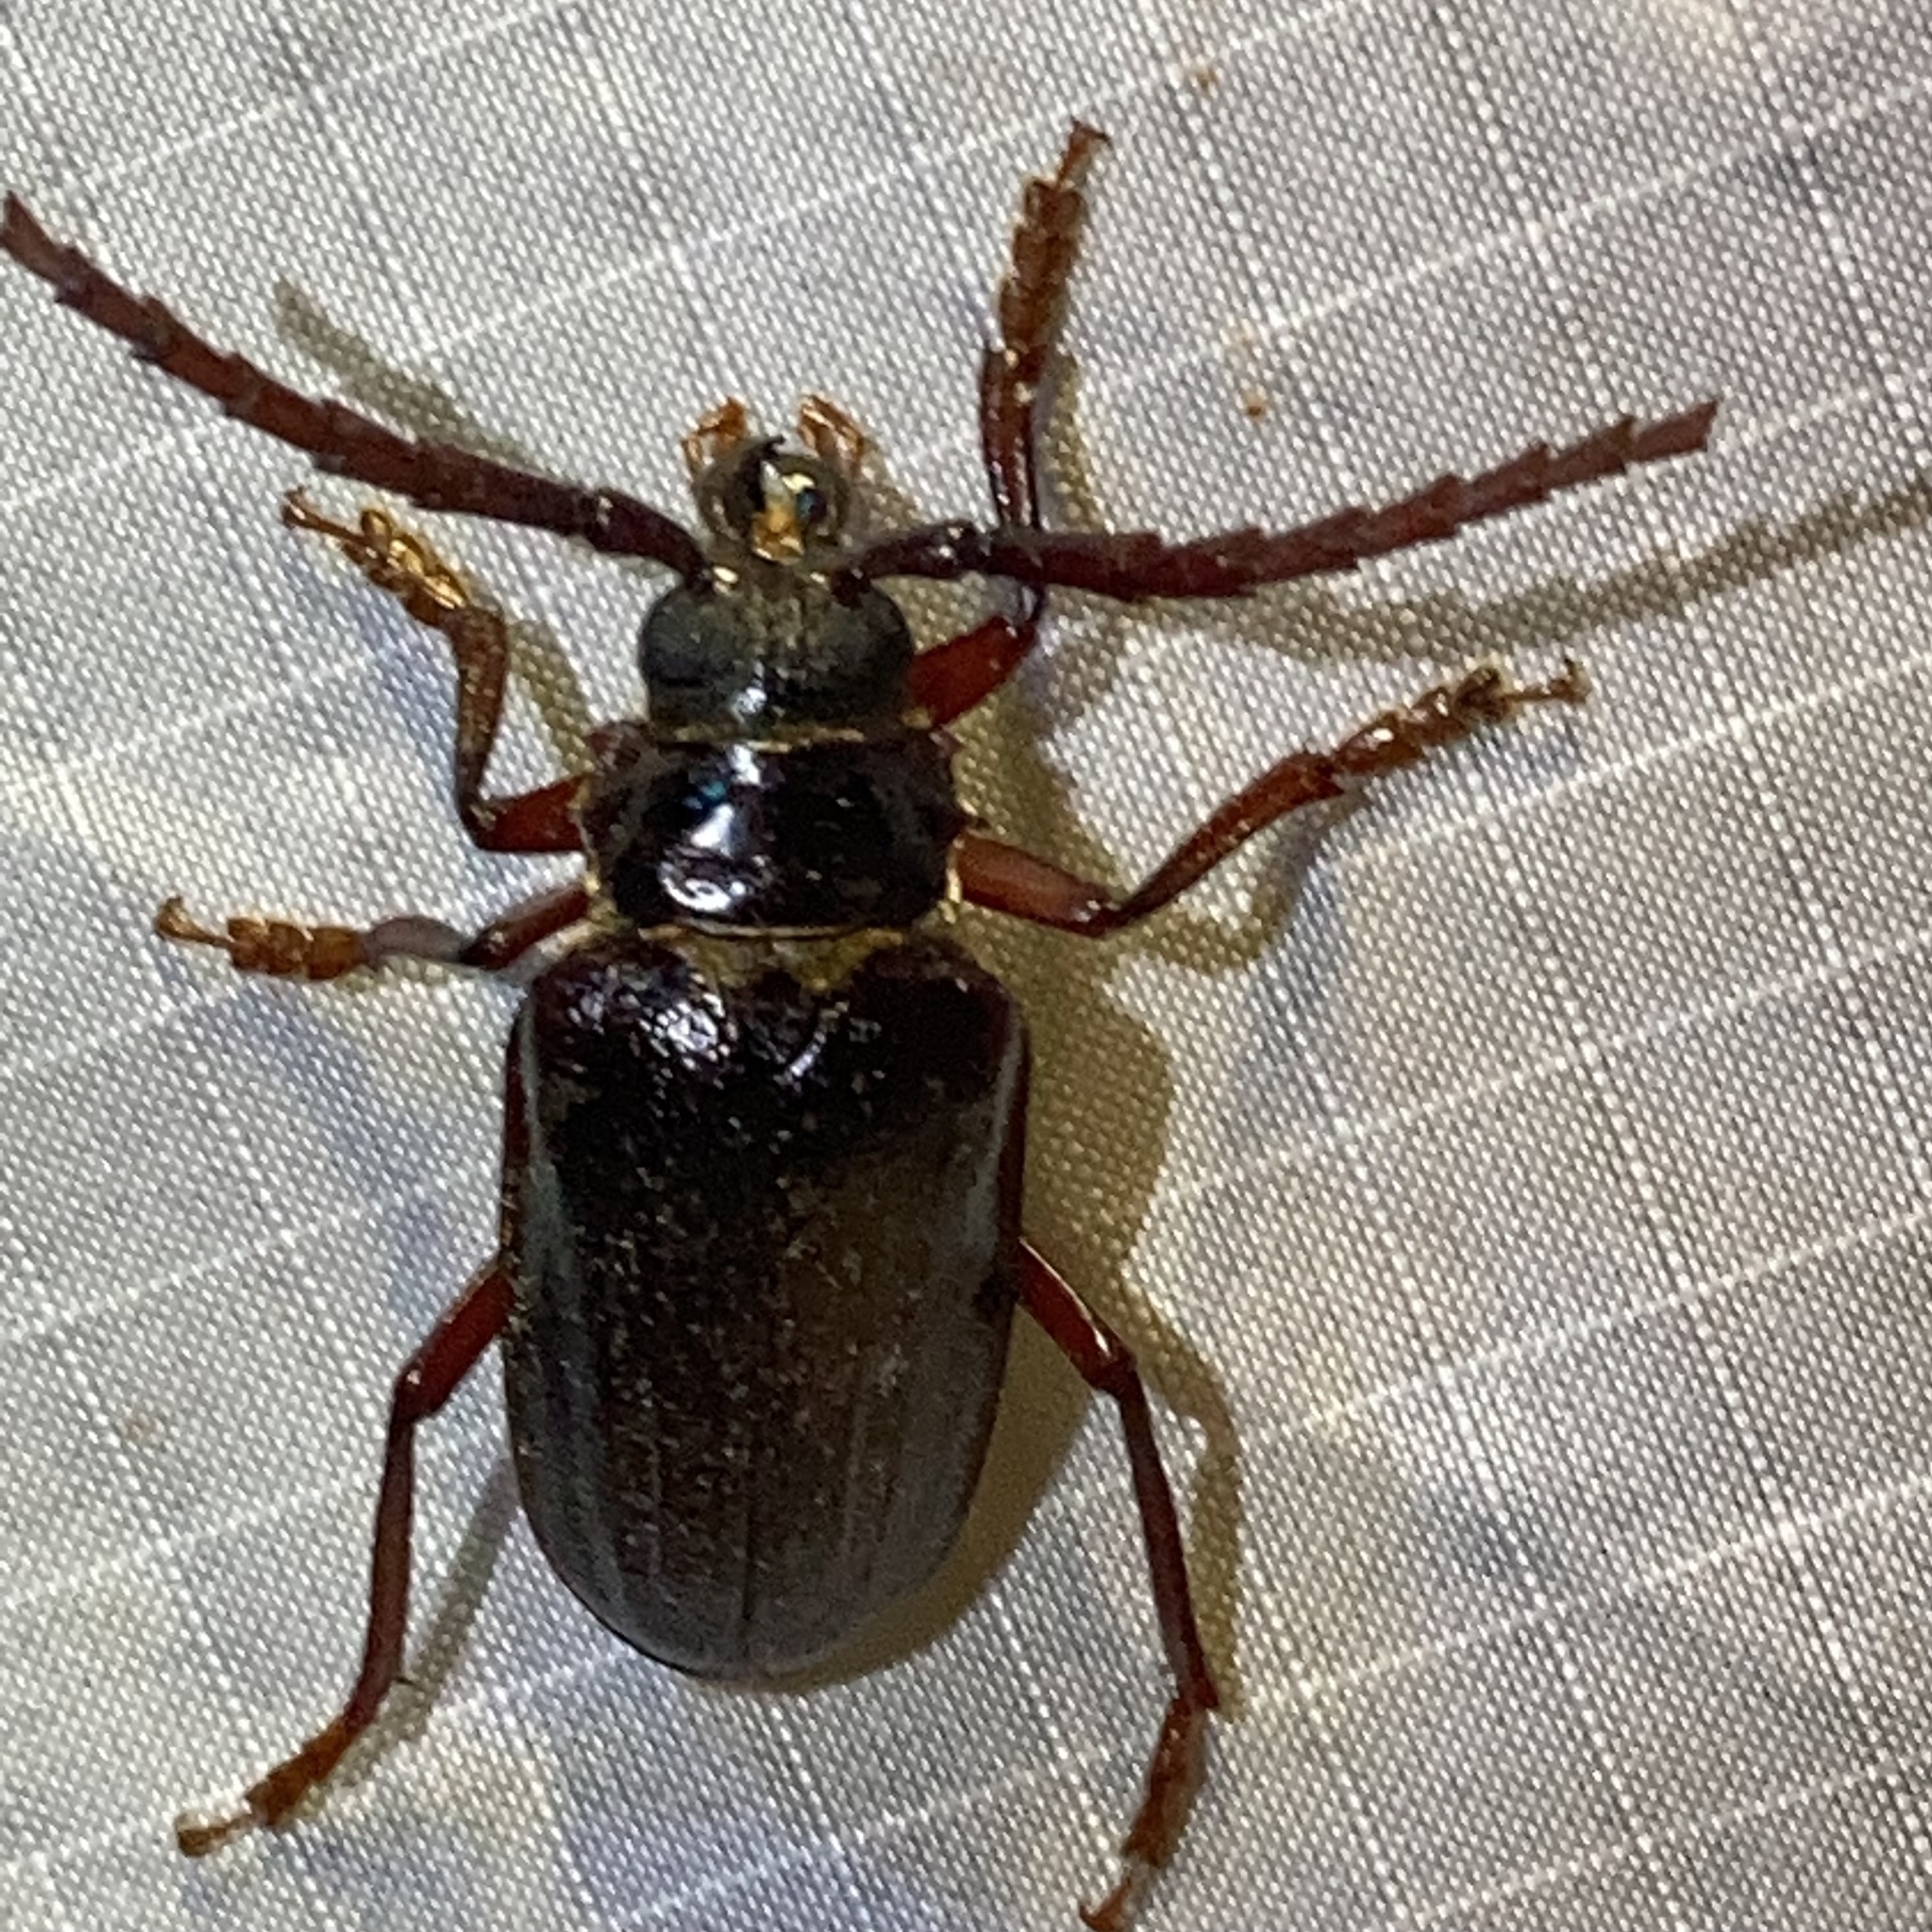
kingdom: Animalia
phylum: Arthropoda
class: Insecta
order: Coleoptera
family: Cerambycidae
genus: Prionus
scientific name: Prionus pocularis
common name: Tooth-necked longhorn beetle
